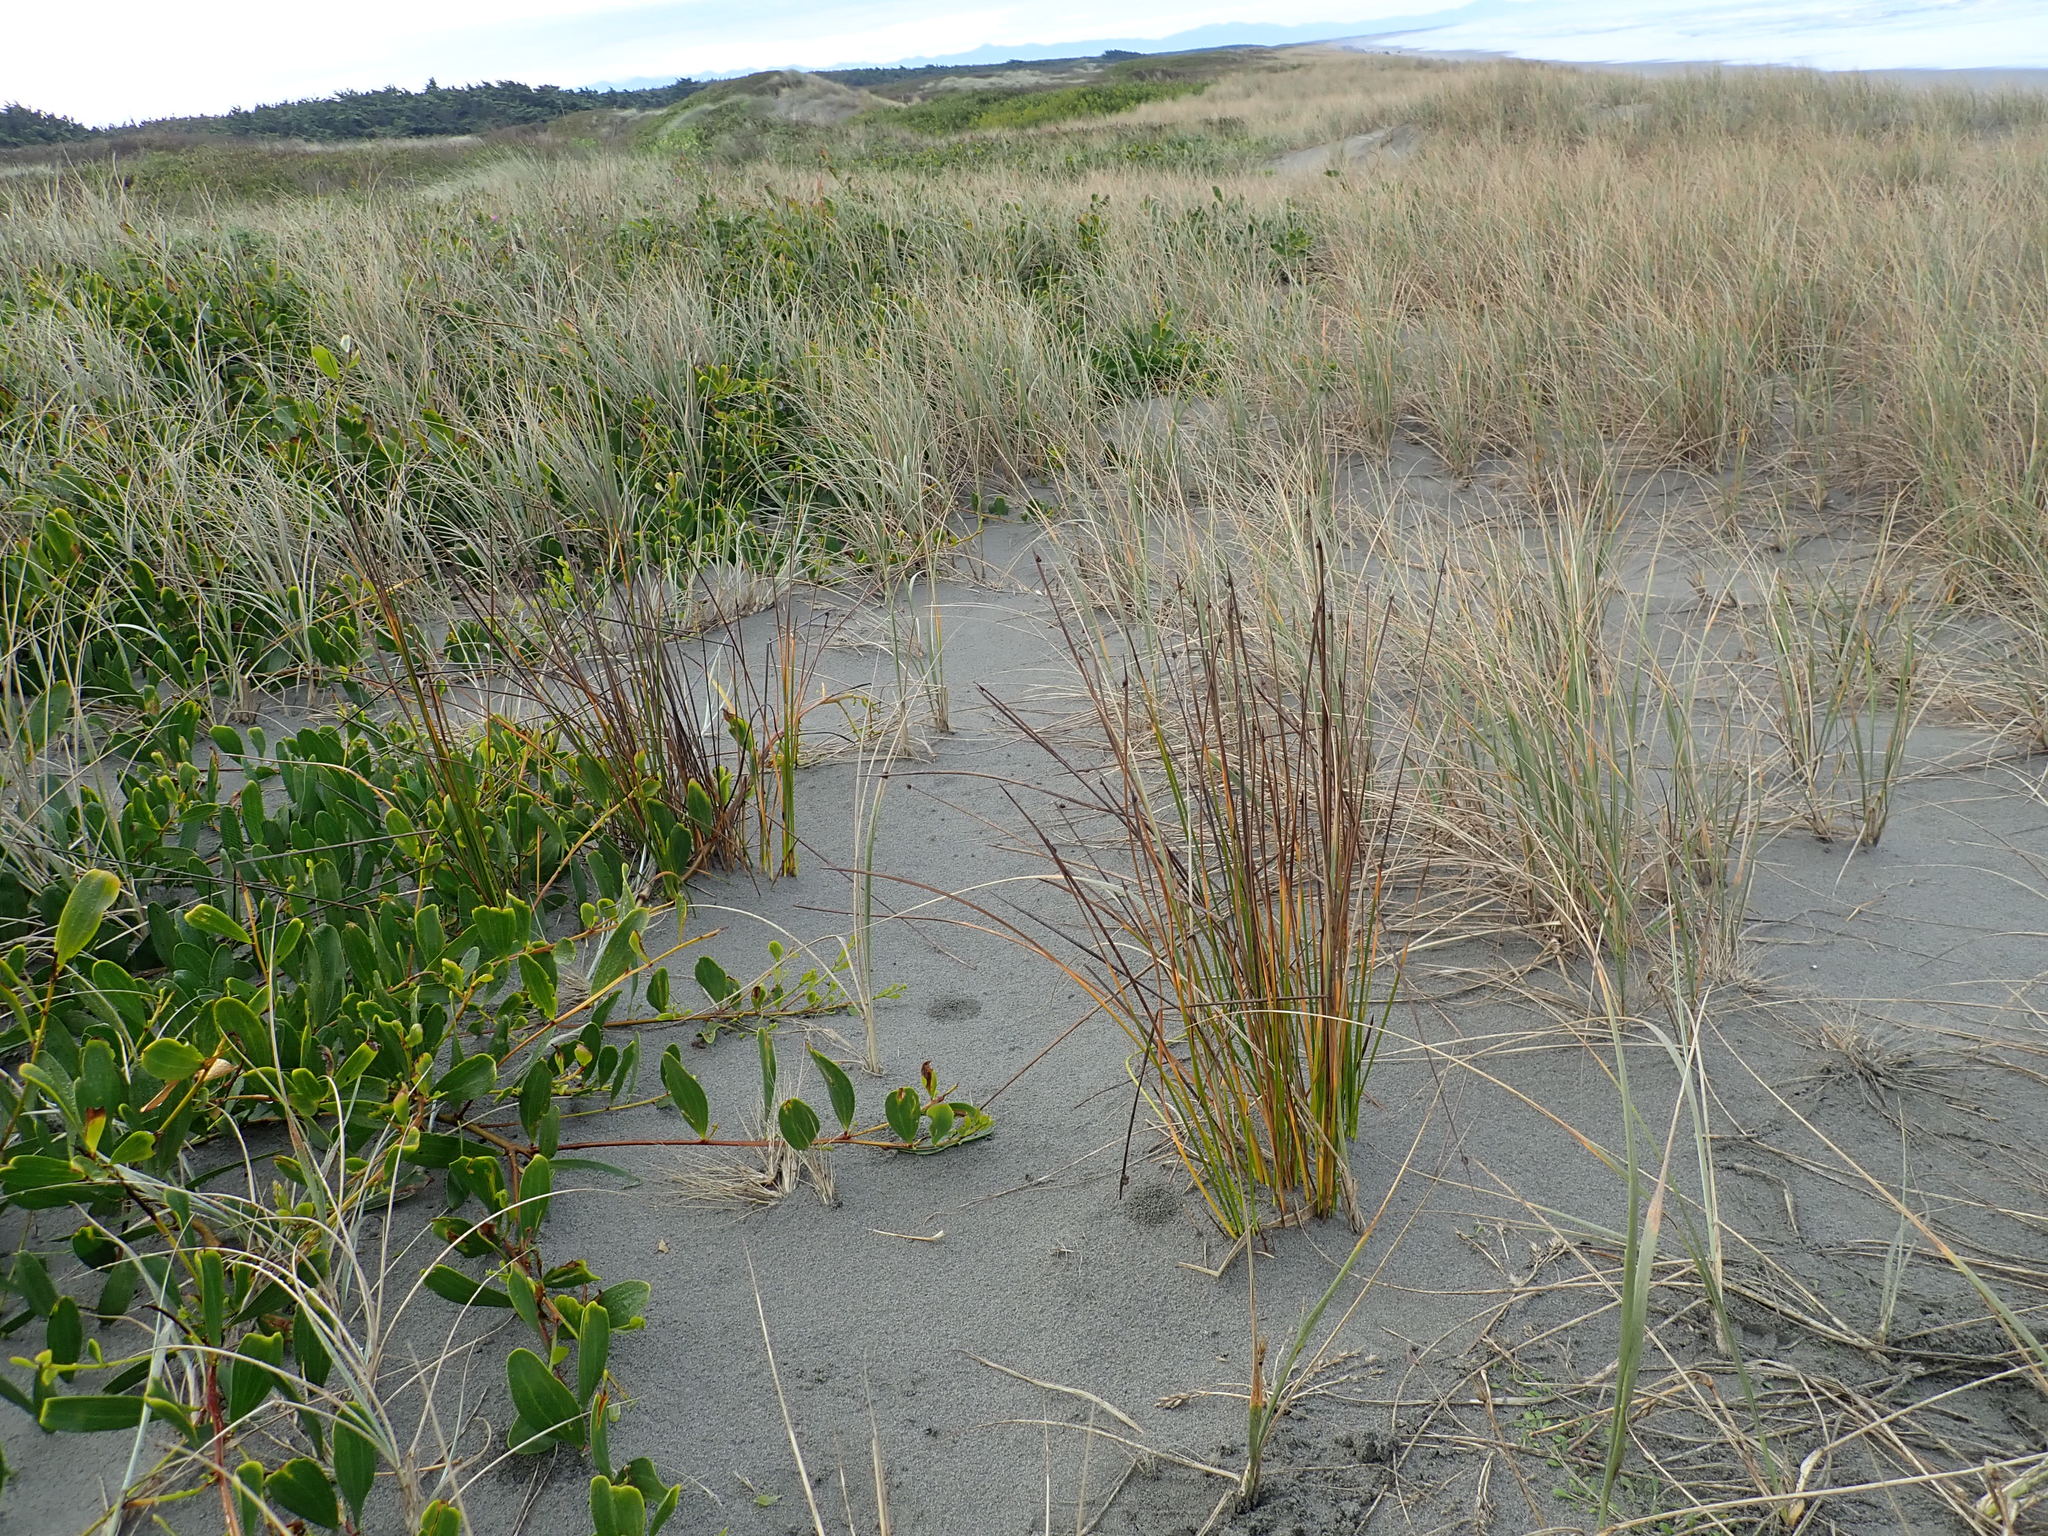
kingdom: Plantae
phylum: Tracheophyta
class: Liliopsida
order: Poales
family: Cyperaceae
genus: Ficinia
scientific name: Ficinia nodosa
